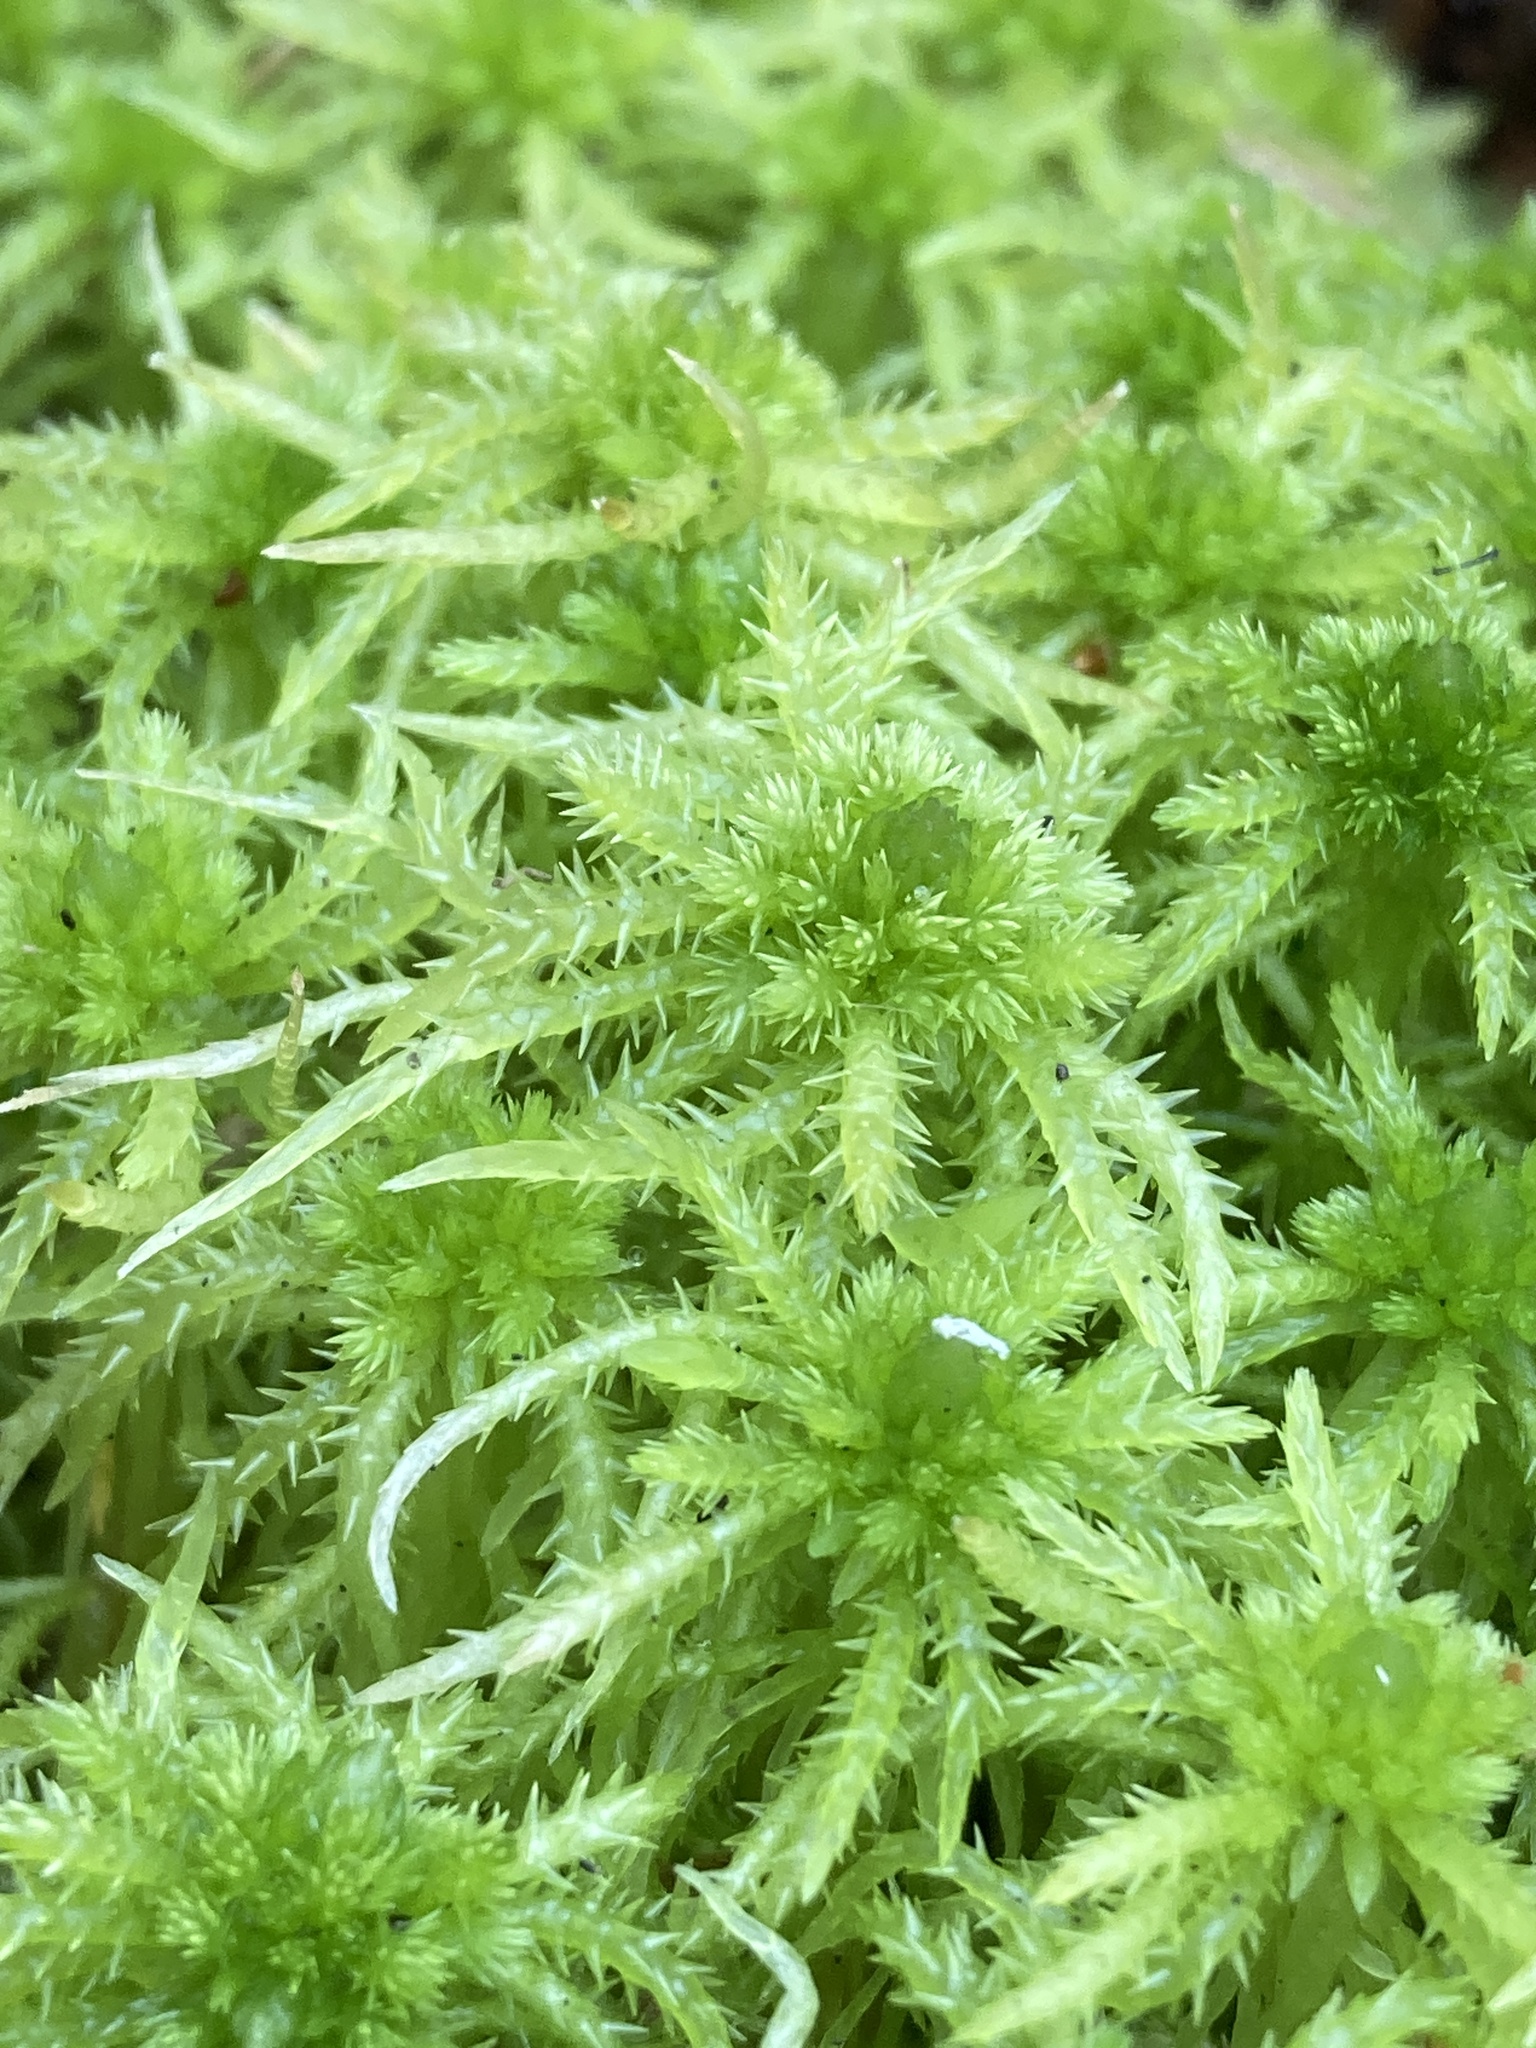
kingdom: Plantae
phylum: Bryophyta
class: Sphagnopsida
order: Sphagnales
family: Sphagnaceae
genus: Sphagnum
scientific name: Sphagnum squarrosum
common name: Shaggy peat moss
